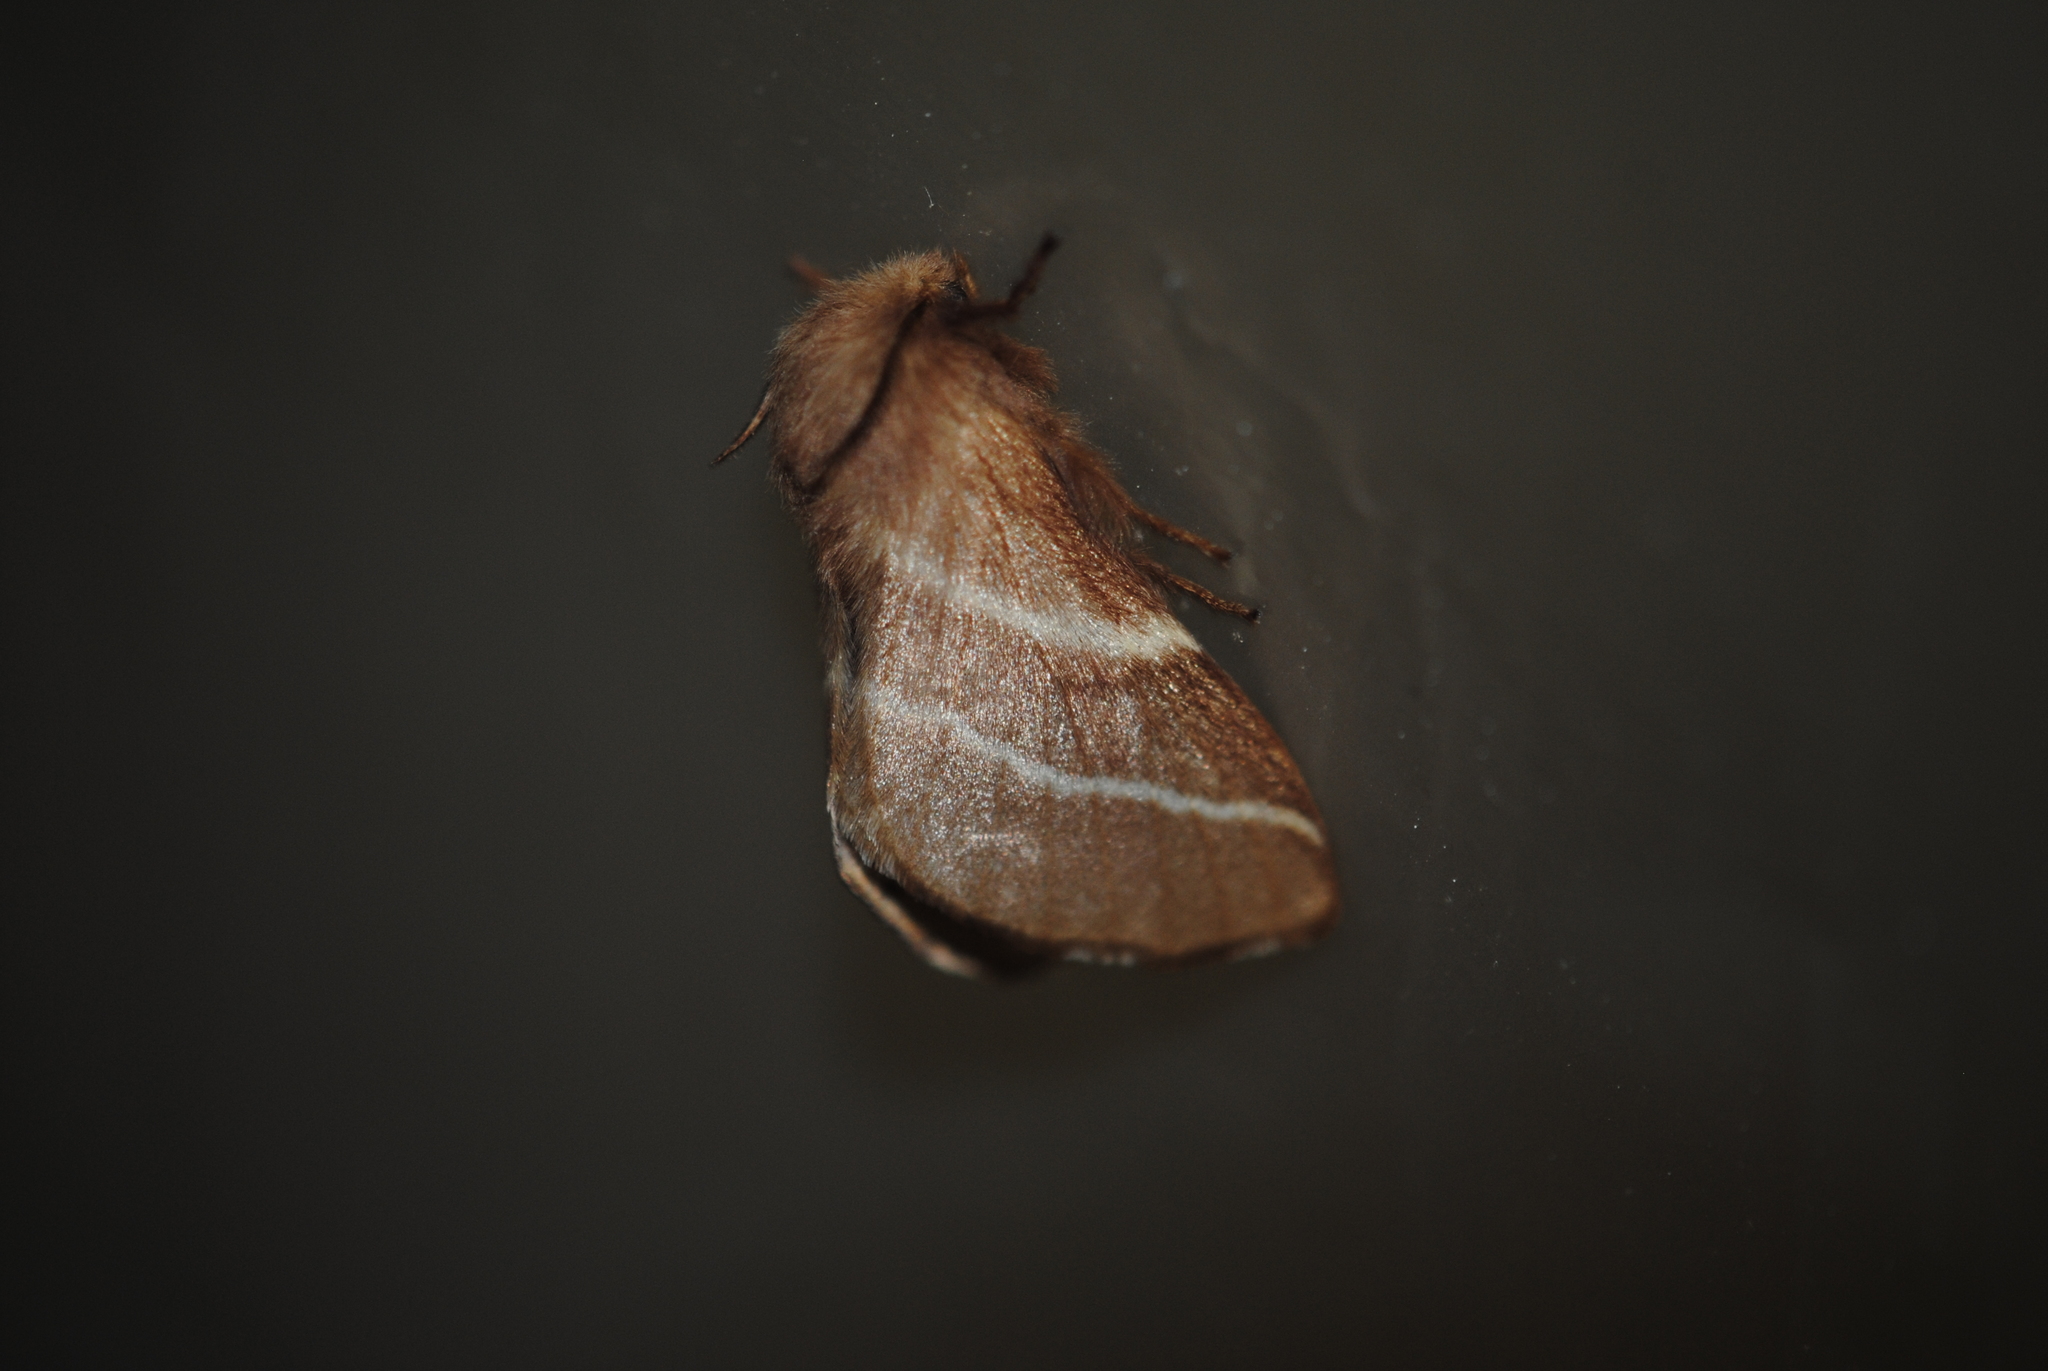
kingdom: Animalia
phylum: Arthropoda
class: Insecta
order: Lepidoptera
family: Lasiocampidae
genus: Malacosoma
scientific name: Malacosoma americana
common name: Eastern tent caterpillar moth
